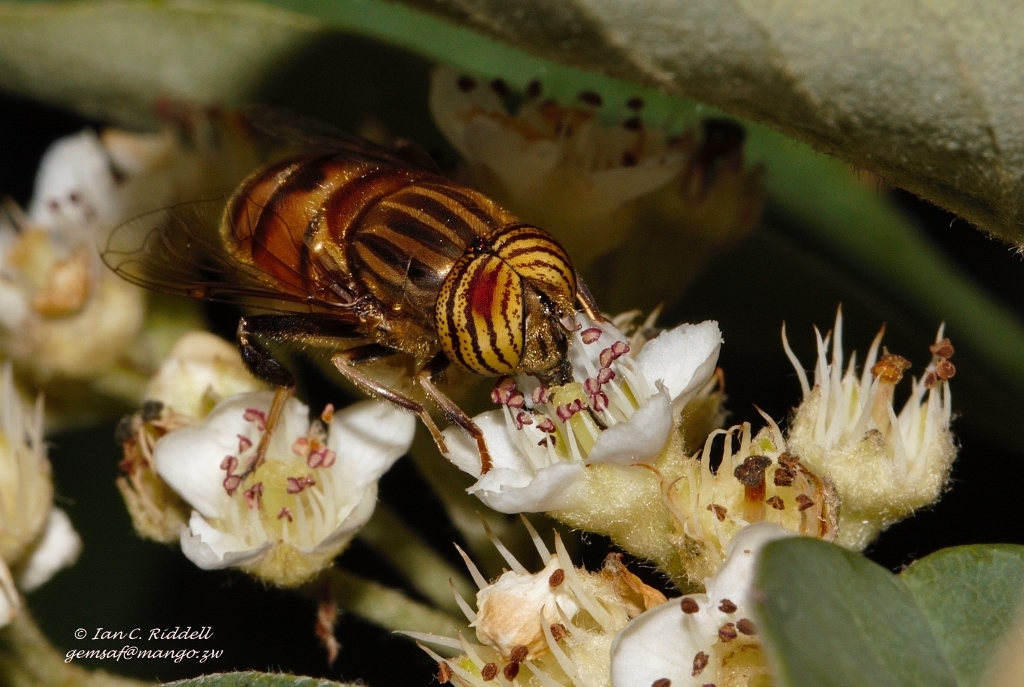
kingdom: Animalia
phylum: Arthropoda
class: Insecta
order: Diptera
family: Syrphidae
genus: Eristalinus
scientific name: Eristalinus taeniops
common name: Syrphid fly
